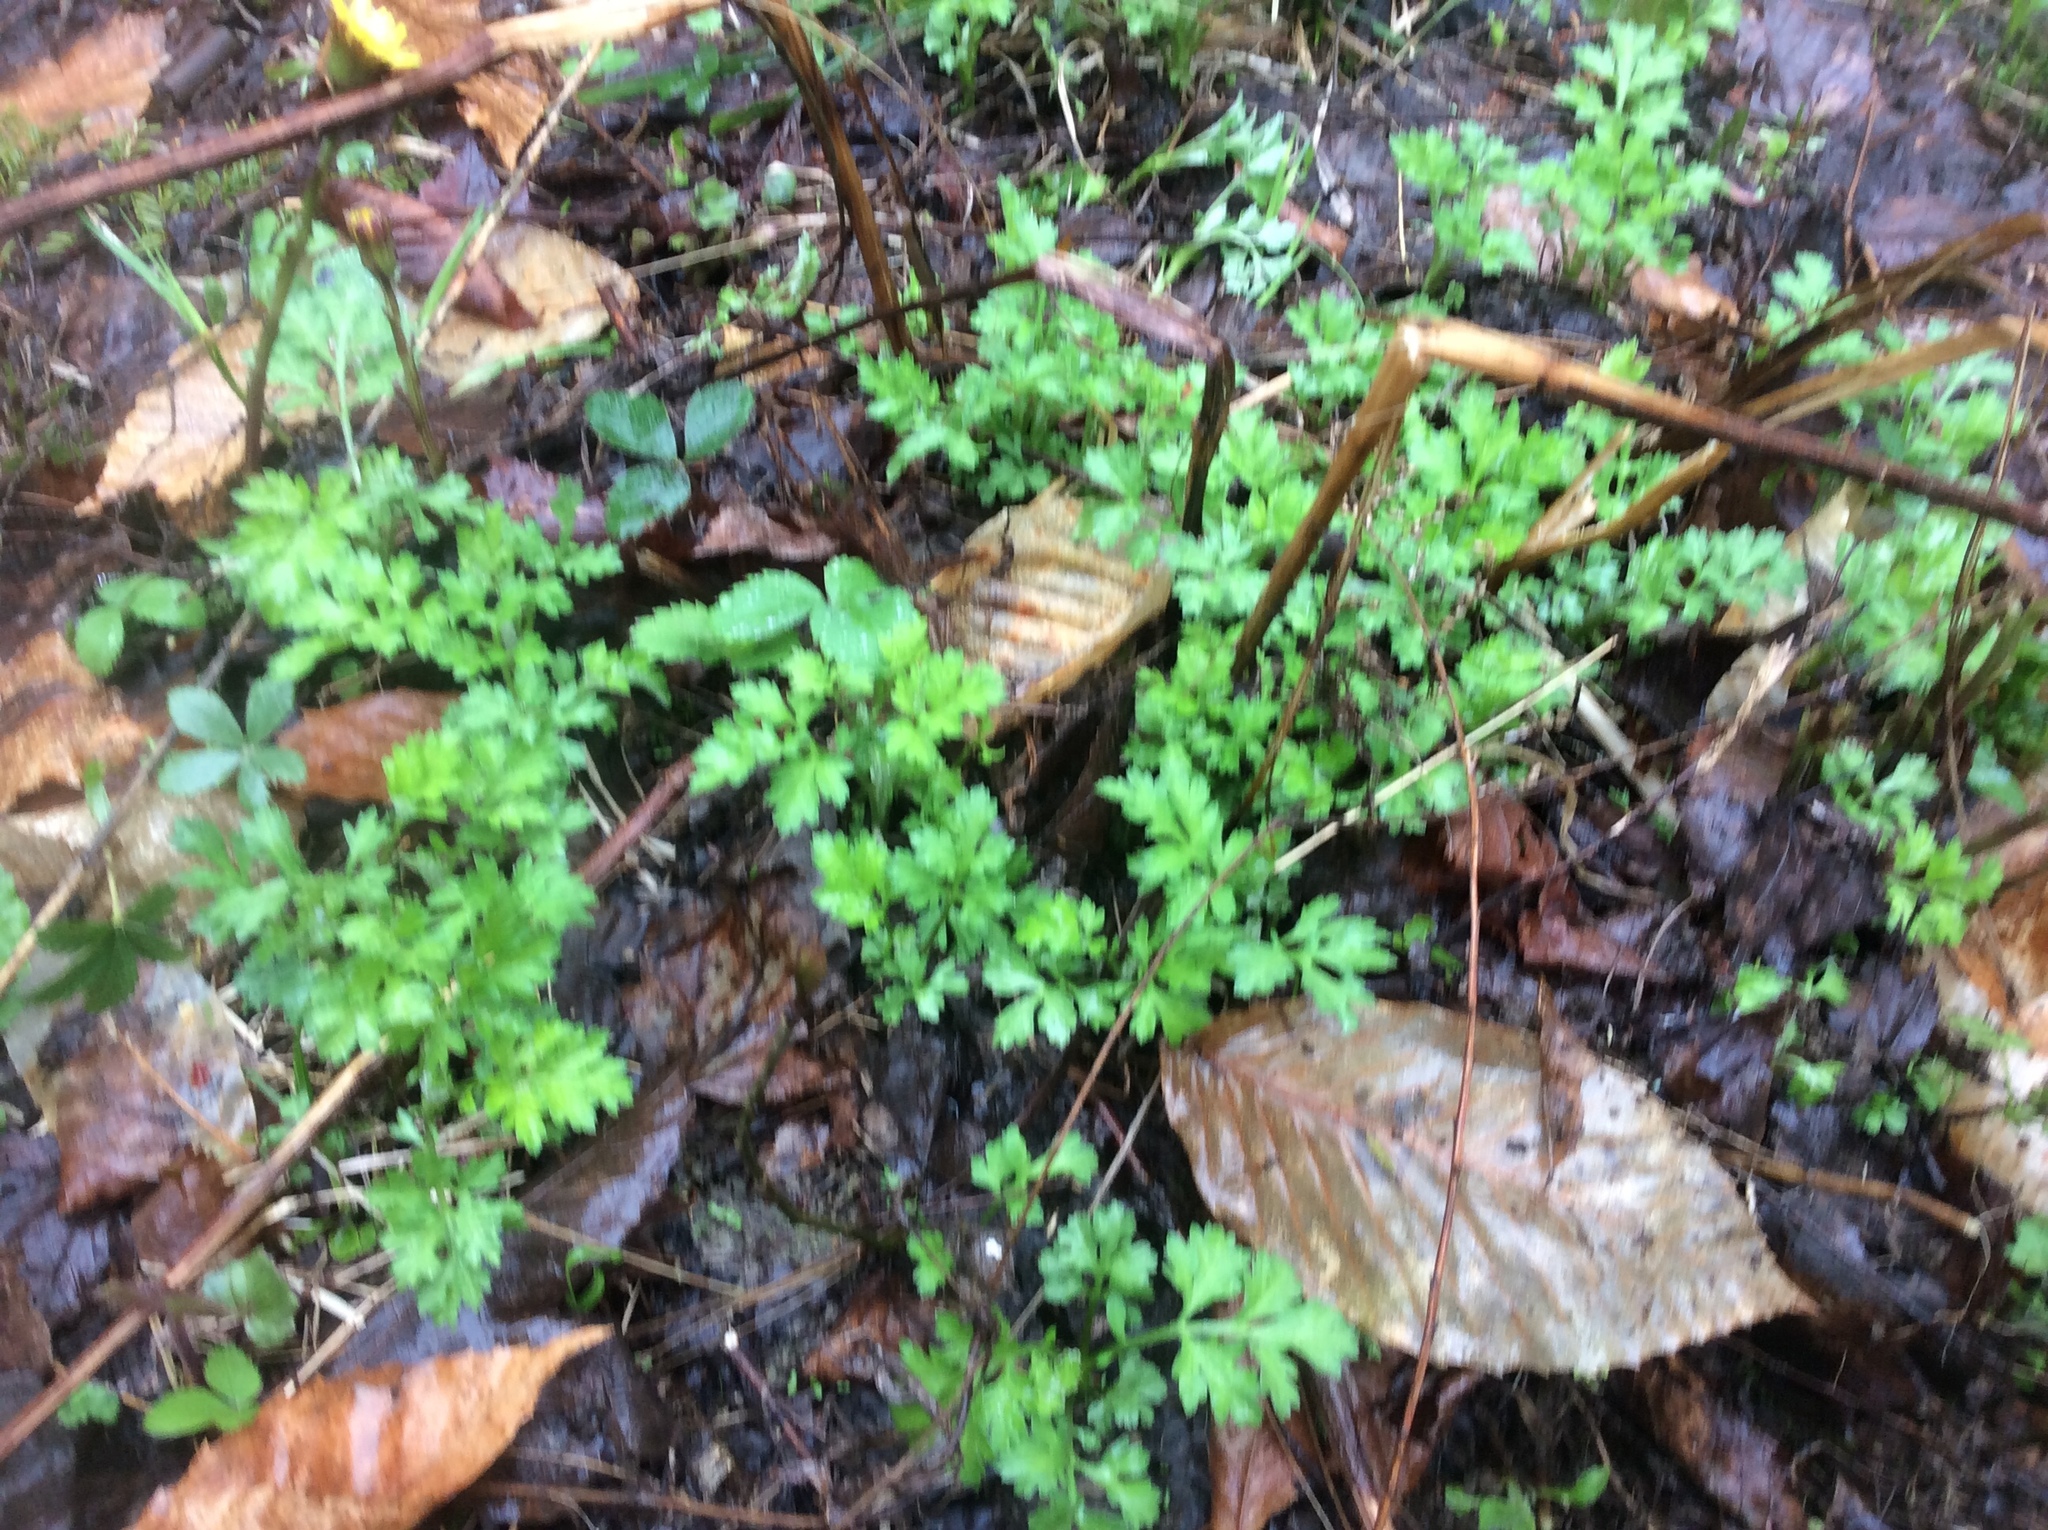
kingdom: Plantae
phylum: Tracheophyta
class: Magnoliopsida
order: Asterales
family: Asteraceae
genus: Artemisia
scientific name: Artemisia vulgaris
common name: Mugwort
